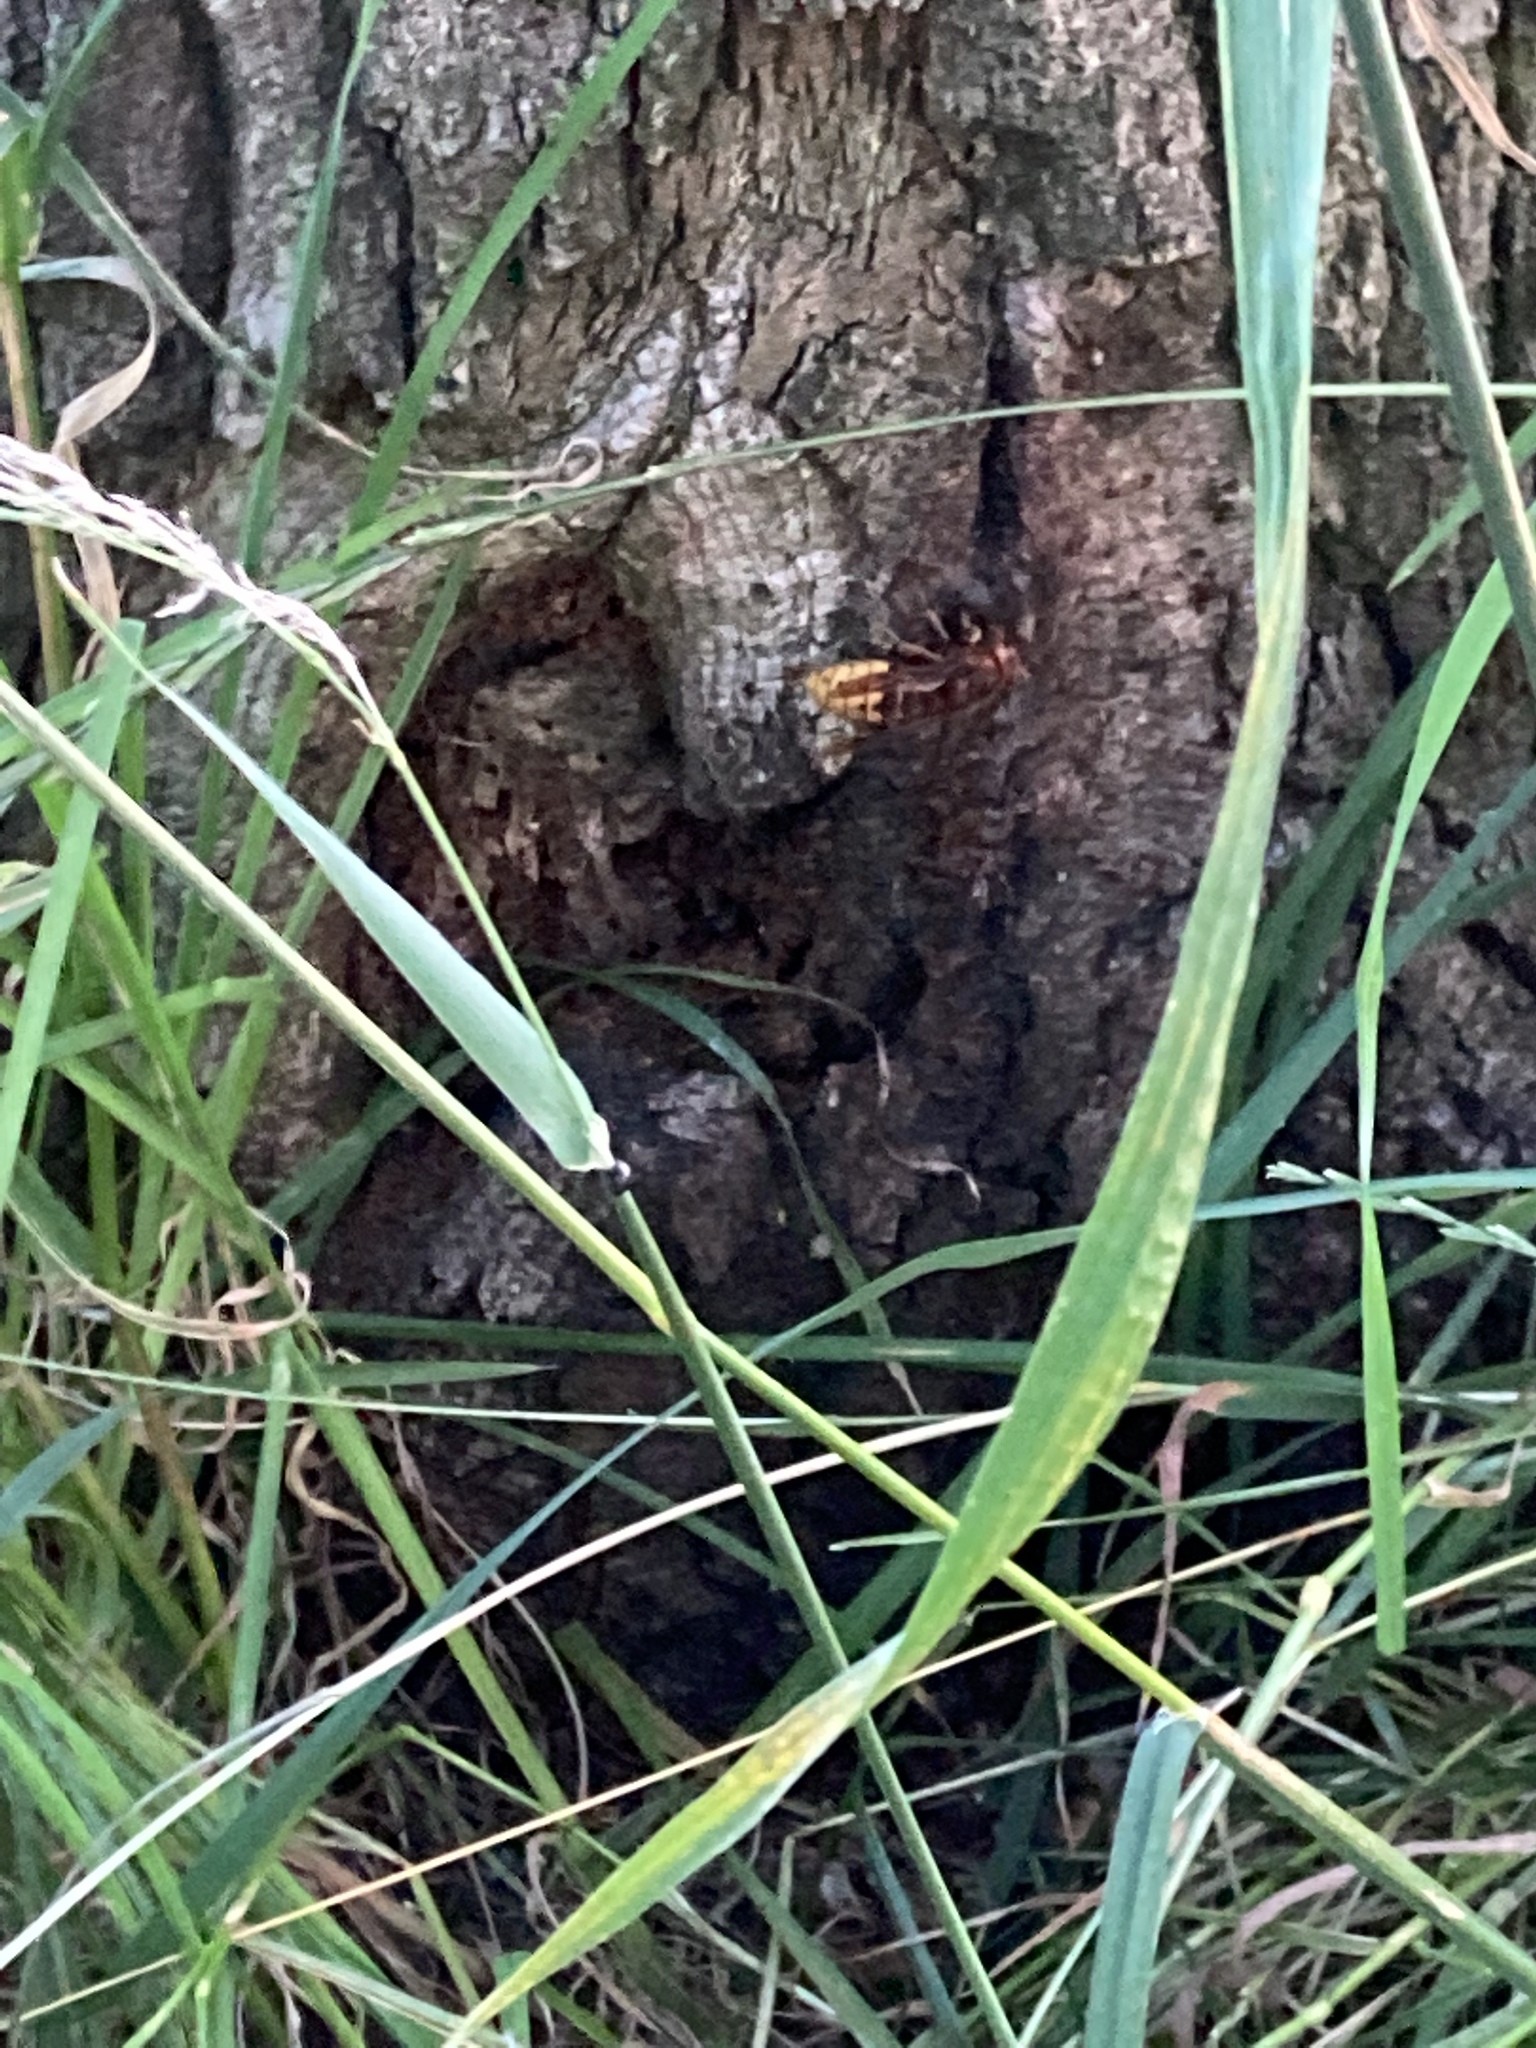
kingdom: Animalia
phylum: Arthropoda
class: Insecta
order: Hymenoptera
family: Vespidae
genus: Vespa
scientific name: Vespa crabro
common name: Hornet
